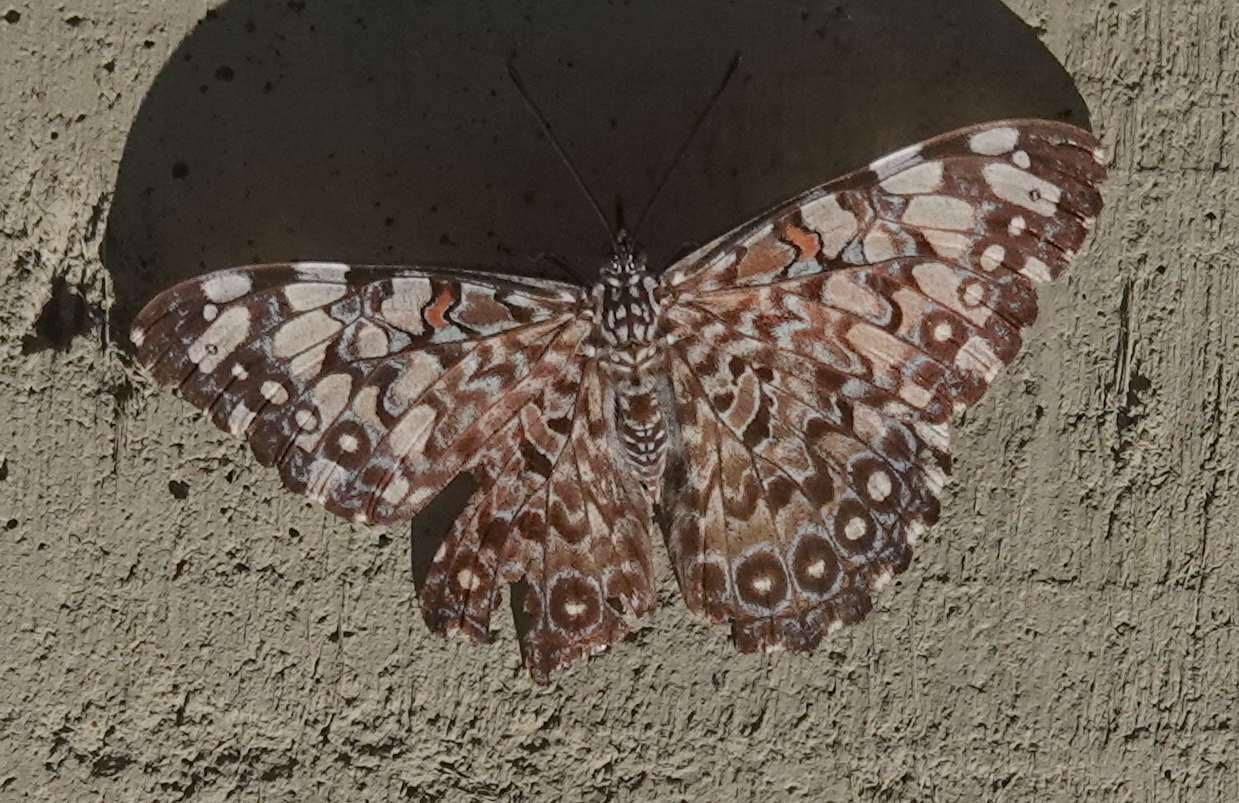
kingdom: Animalia
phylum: Arthropoda
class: Insecta
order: Lepidoptera
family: Nymphalidae
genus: Hamadryas
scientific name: Hamadryas feronia
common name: Variable cracker
